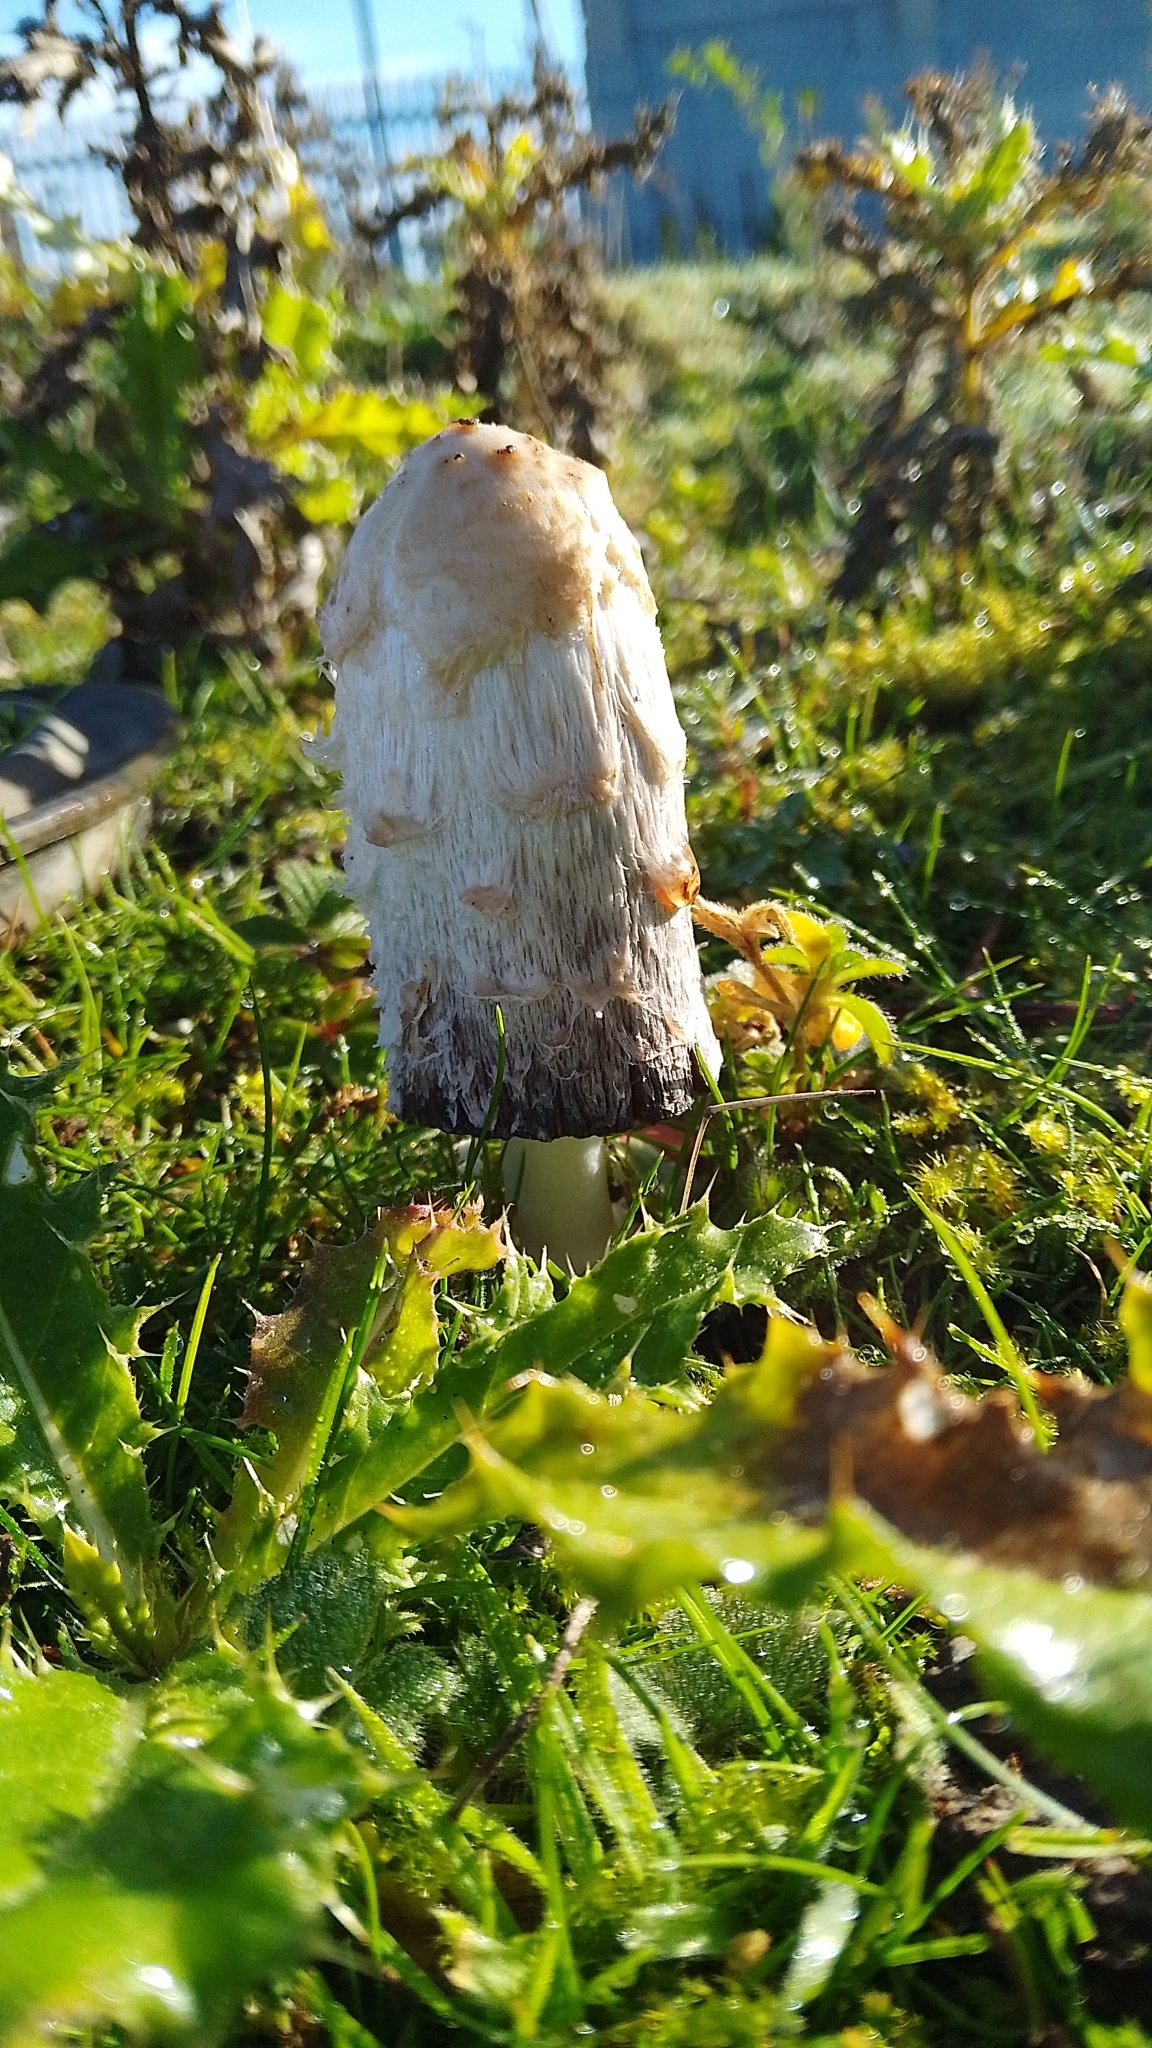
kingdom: Fungi
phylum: Basidiomycota
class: Agaricomycetes
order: Agaricales
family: Agaricaceae
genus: Coprinus
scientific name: Coprinus comatus
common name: Lawyer's wig
